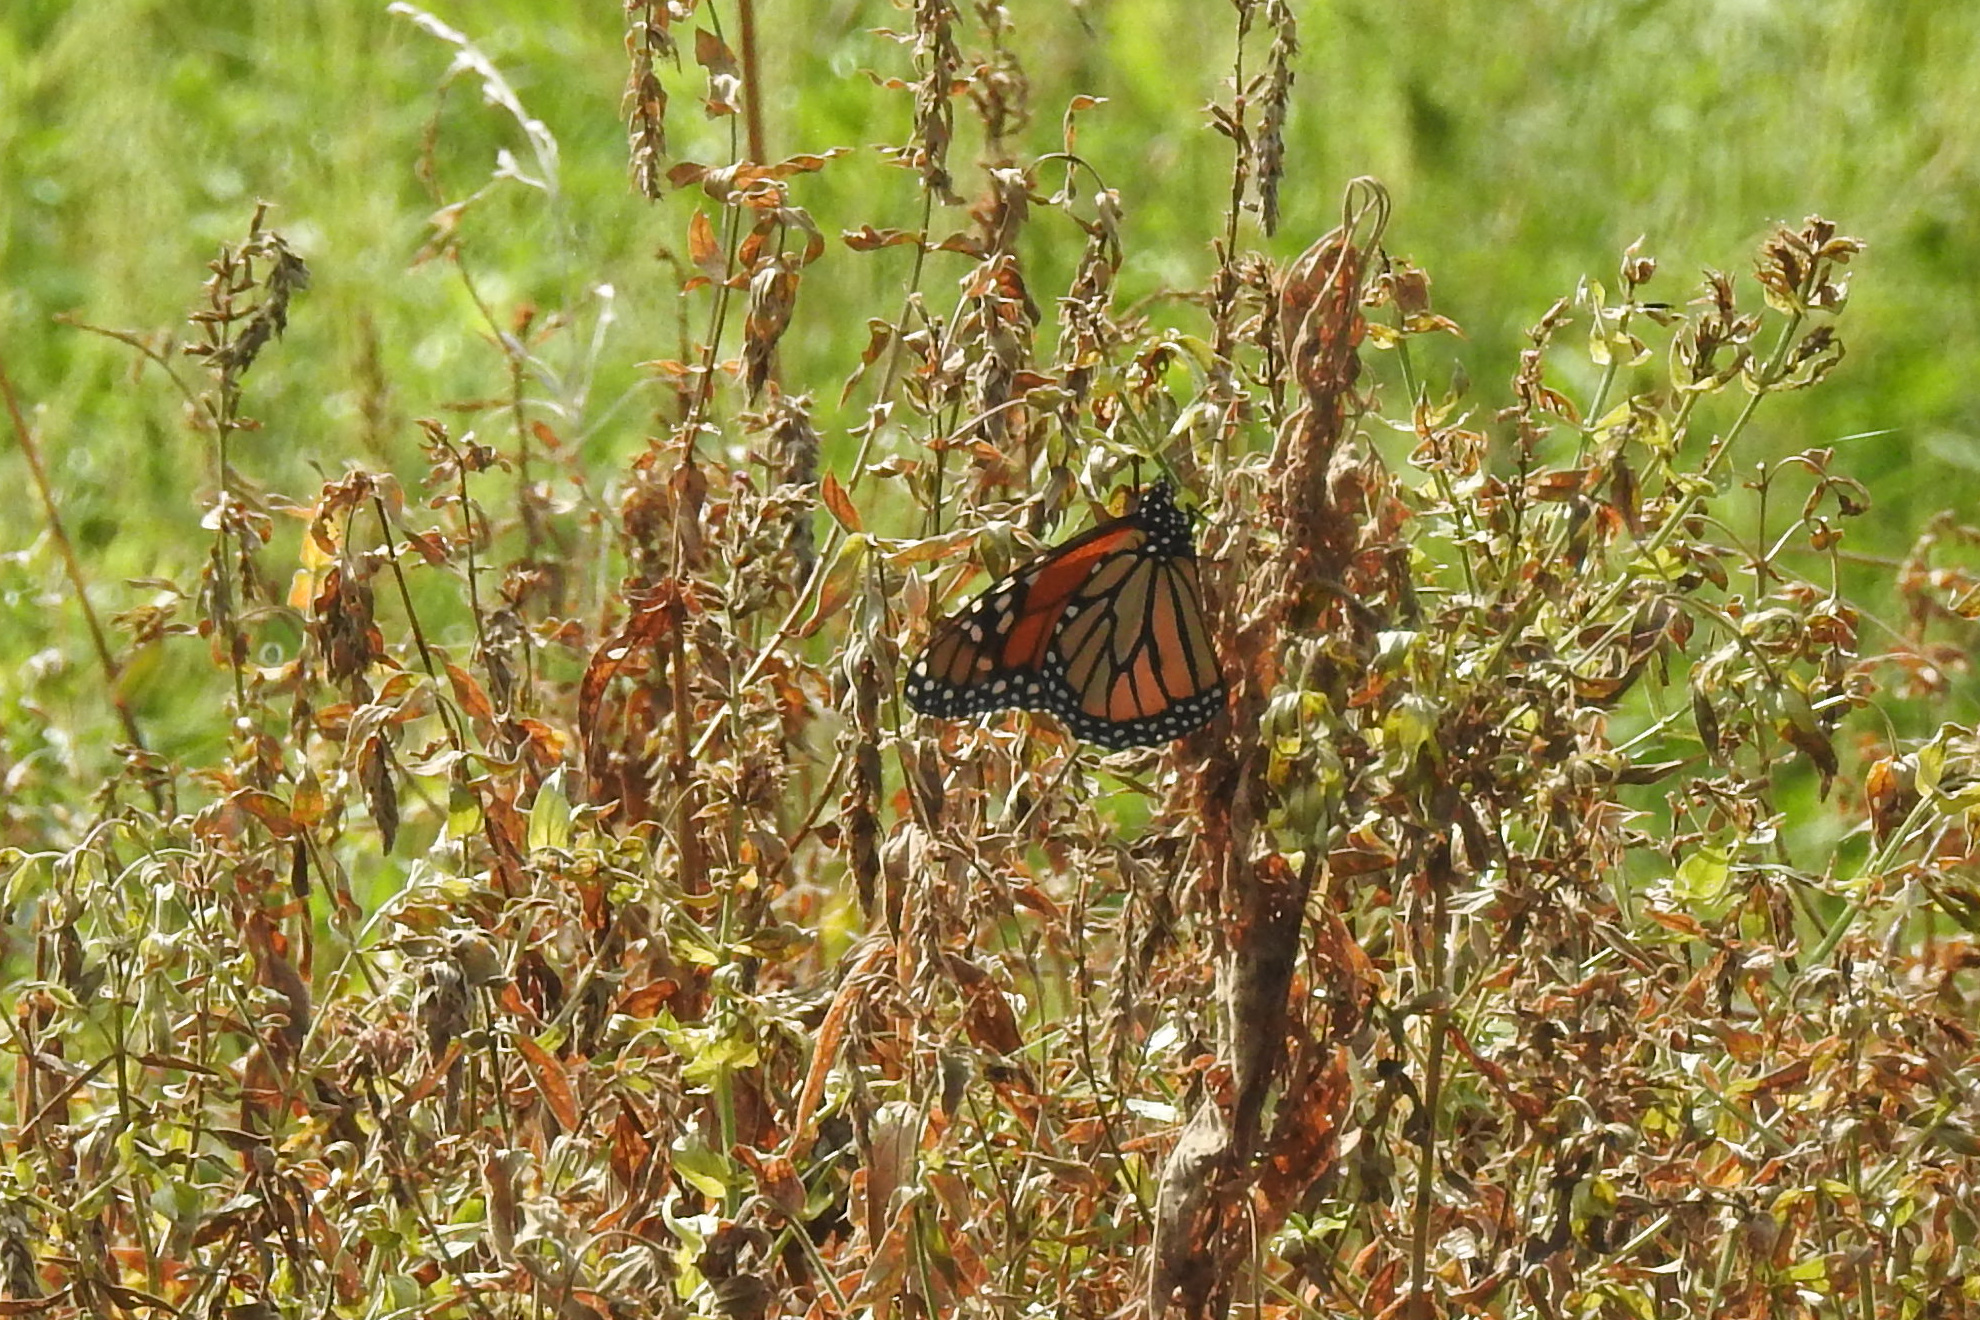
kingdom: Animalia
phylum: Arthropoda
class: Insecta
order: Lepidoptera
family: Nymphalidae
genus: Danaus
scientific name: Danaus plexippus
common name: Monarch
